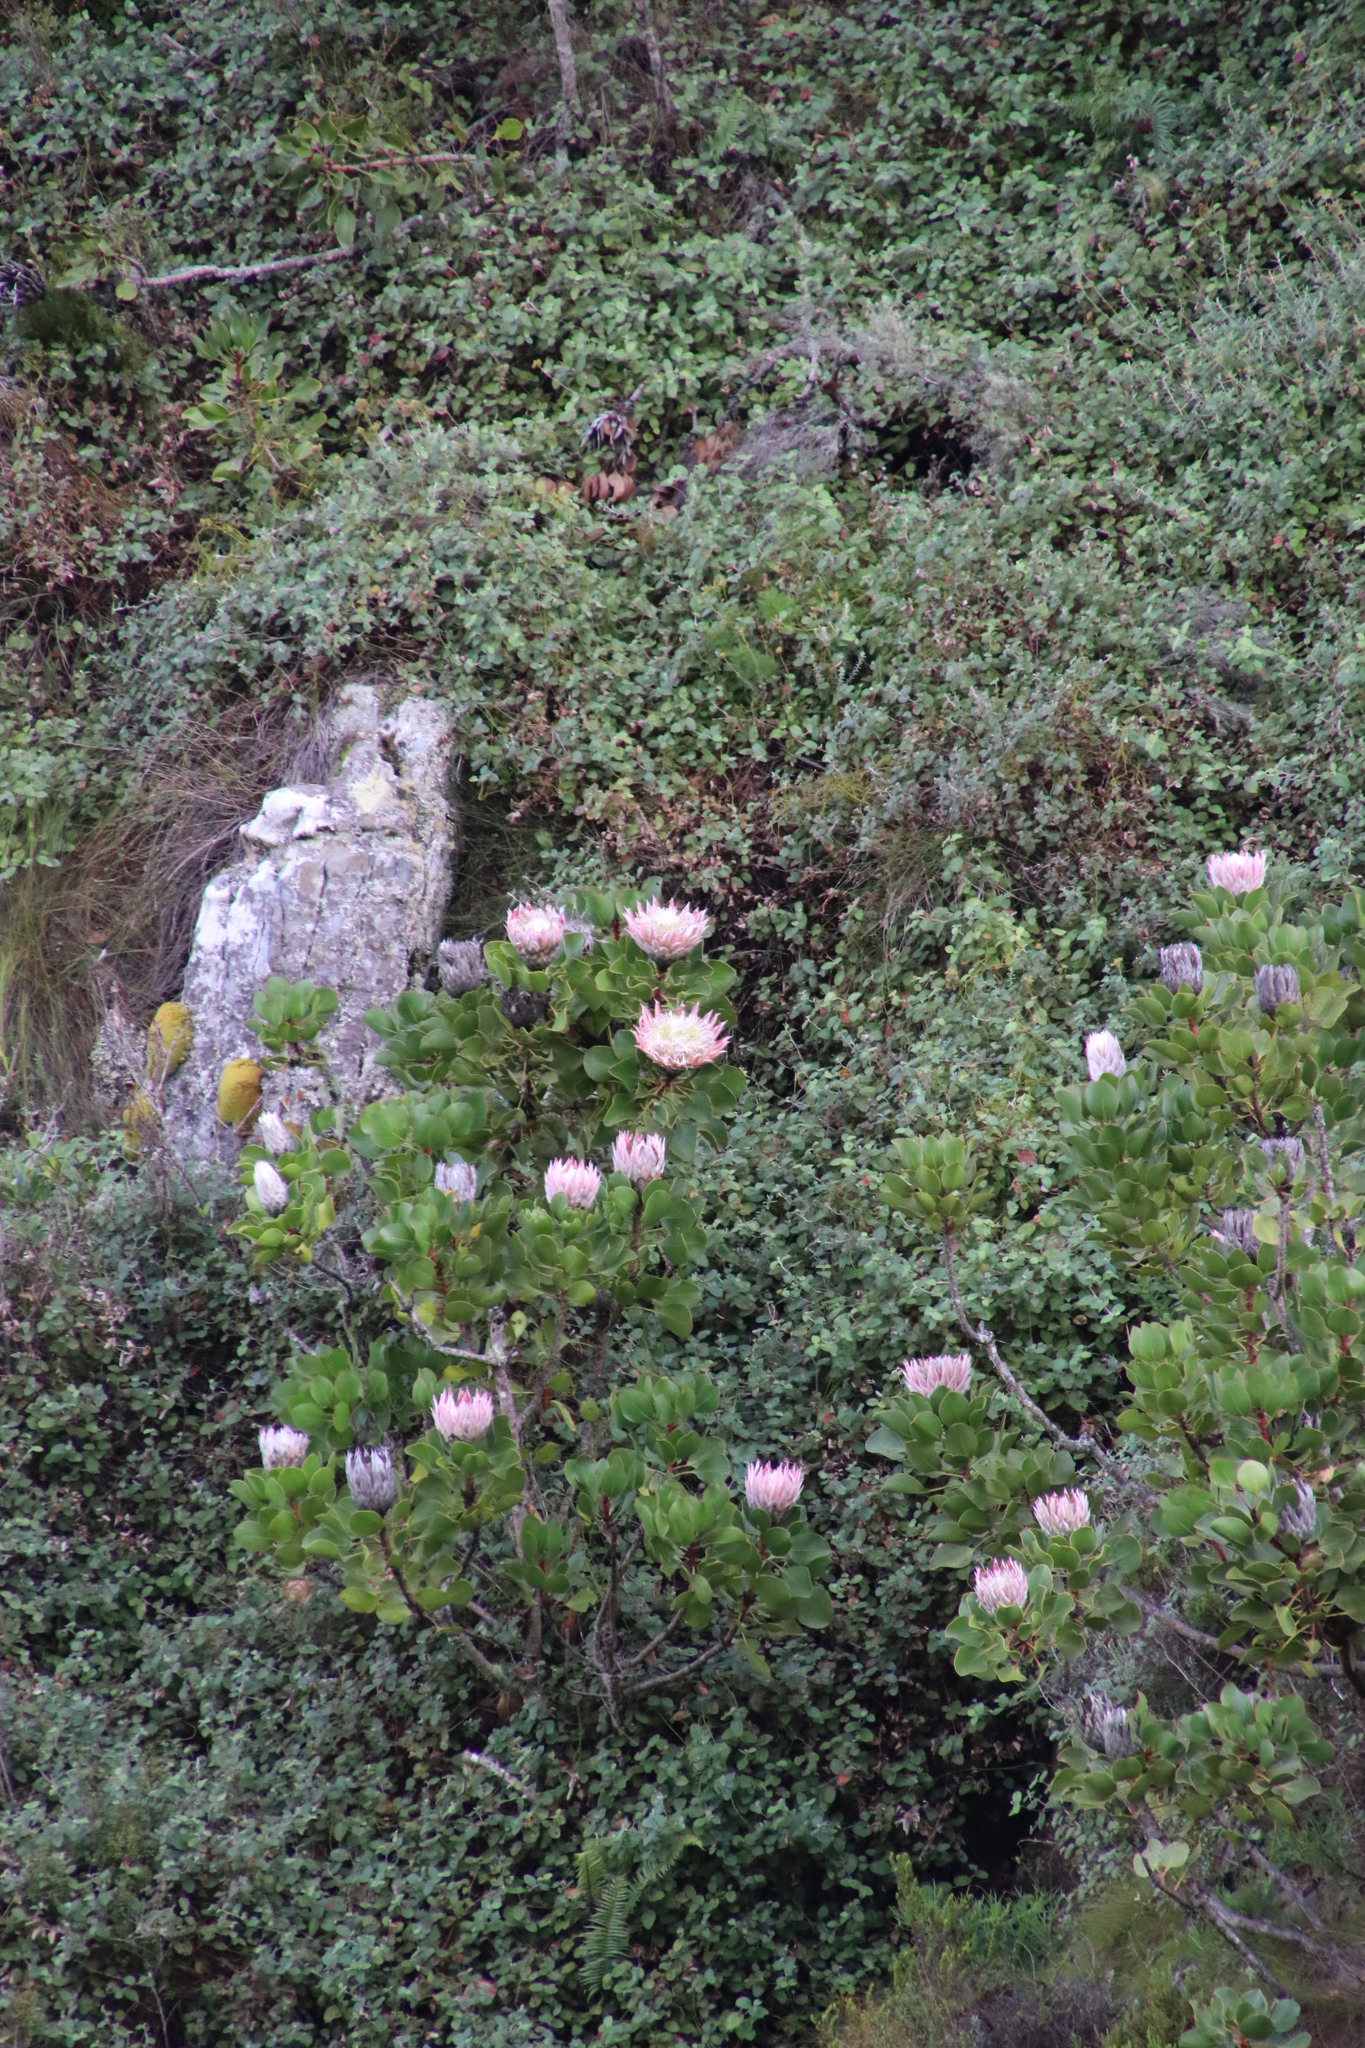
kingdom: Plantae
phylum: Tracheophyta
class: Magnoliopsida
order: Proteales
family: Proteaceae
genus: Protea
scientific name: Protea cynaroides
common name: King protea
